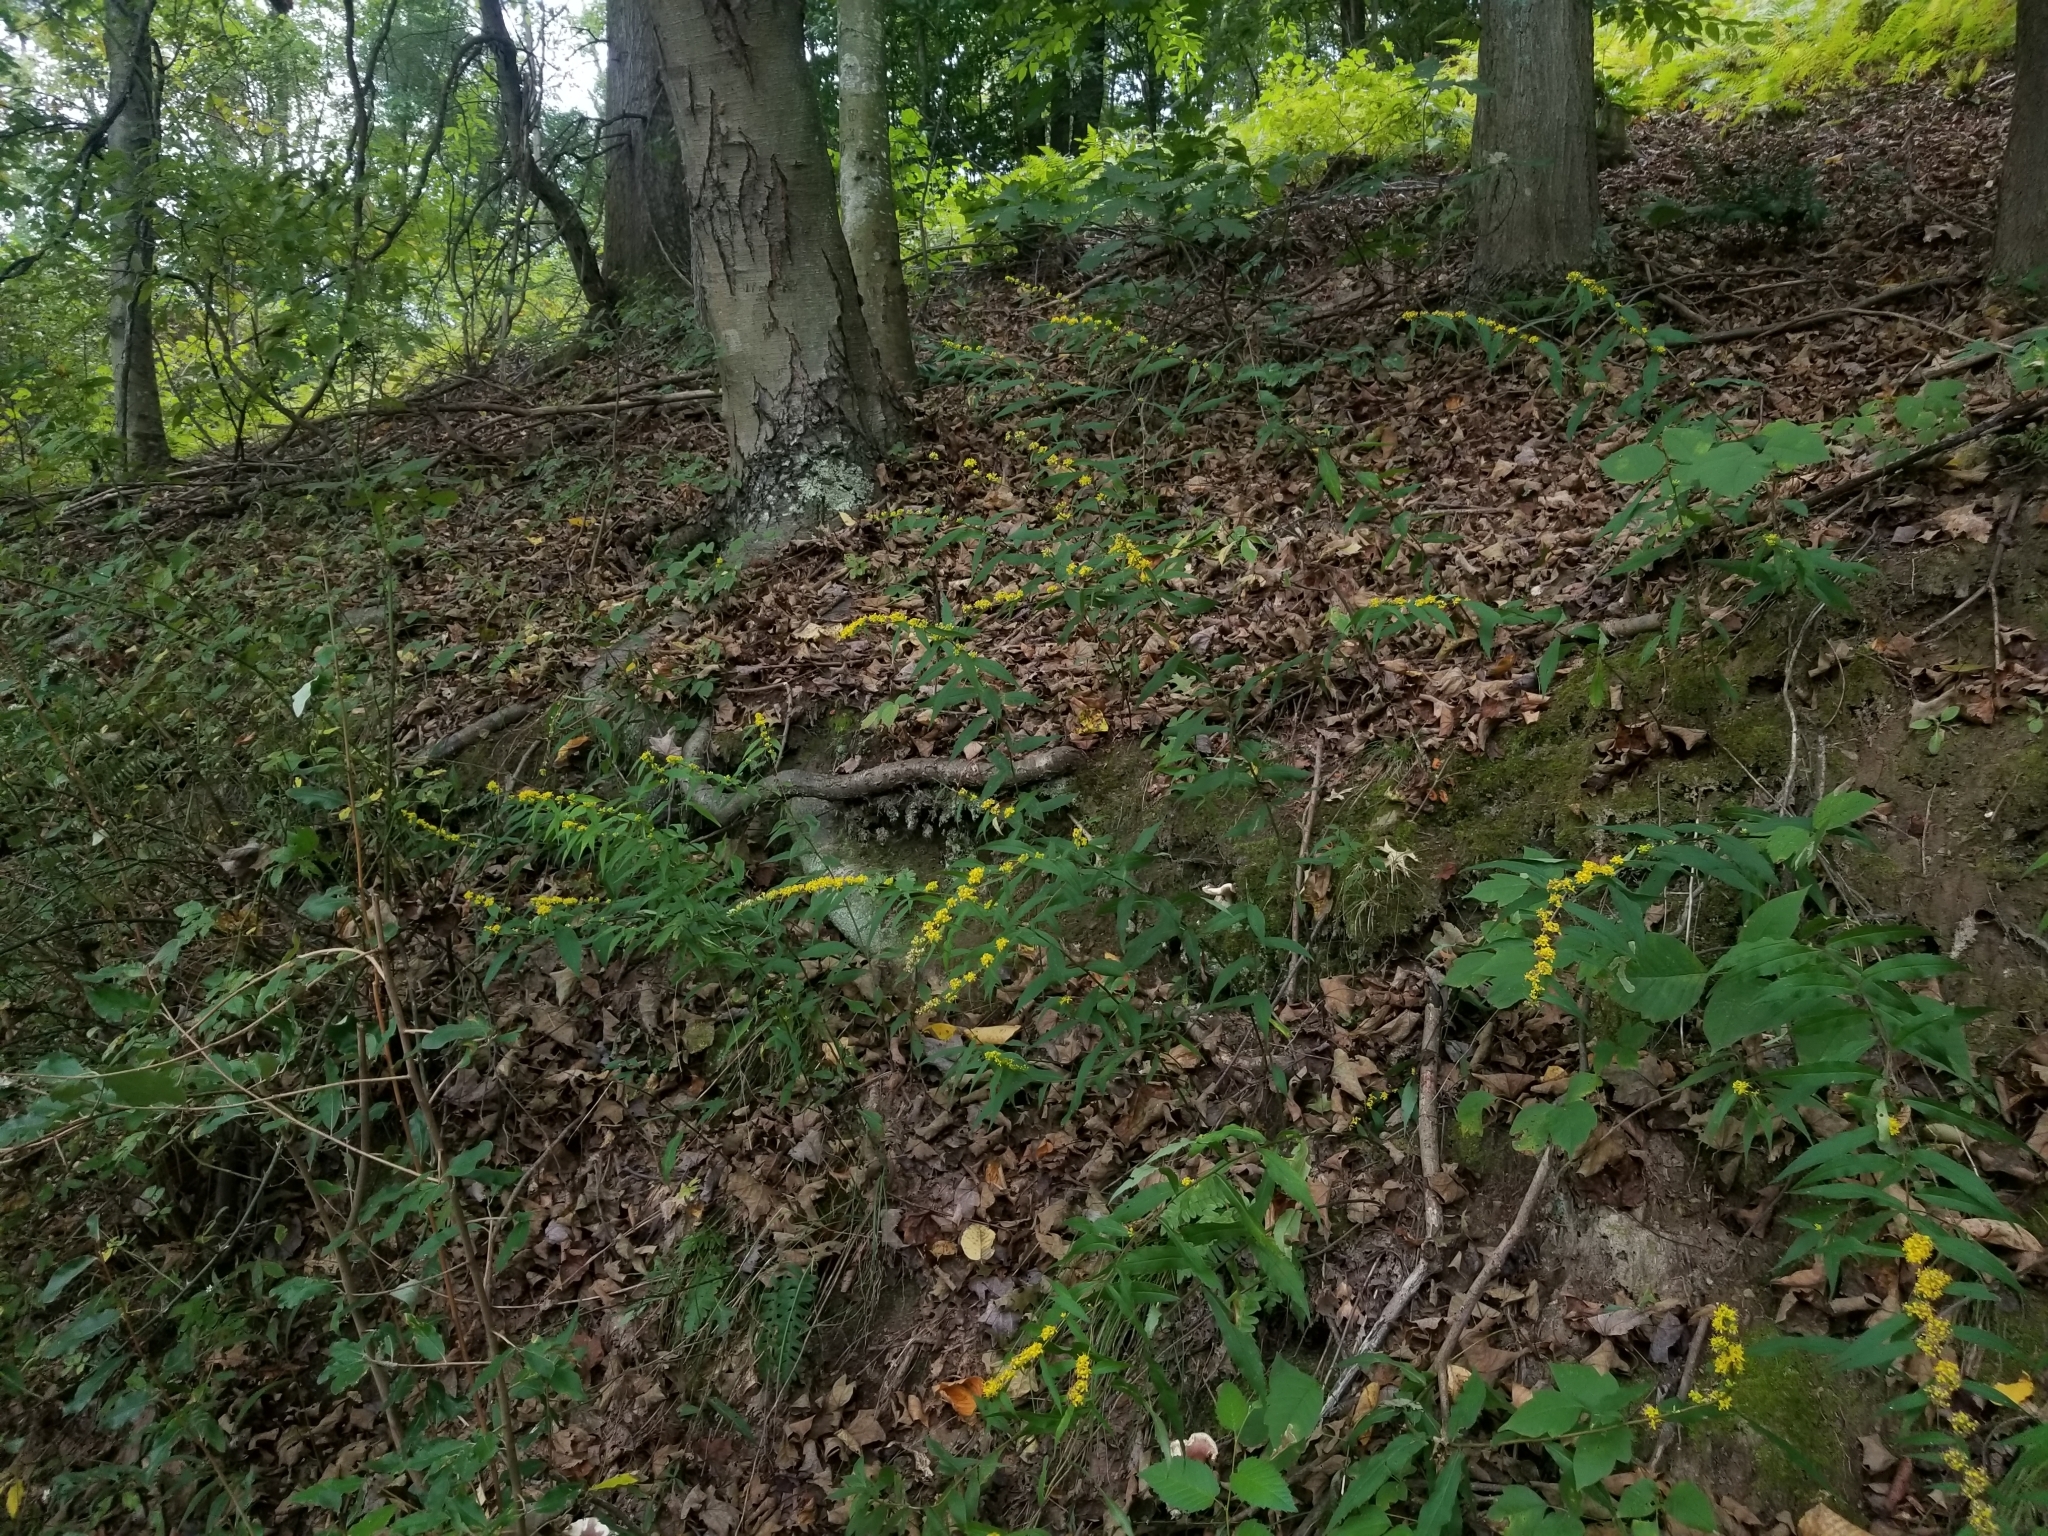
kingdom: Plantae
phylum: Tracheophyta
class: Magnoliopsida
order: Asterales
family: Asteraceae
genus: Solidago
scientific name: Solidago caesia
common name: Woodland goldenrod
